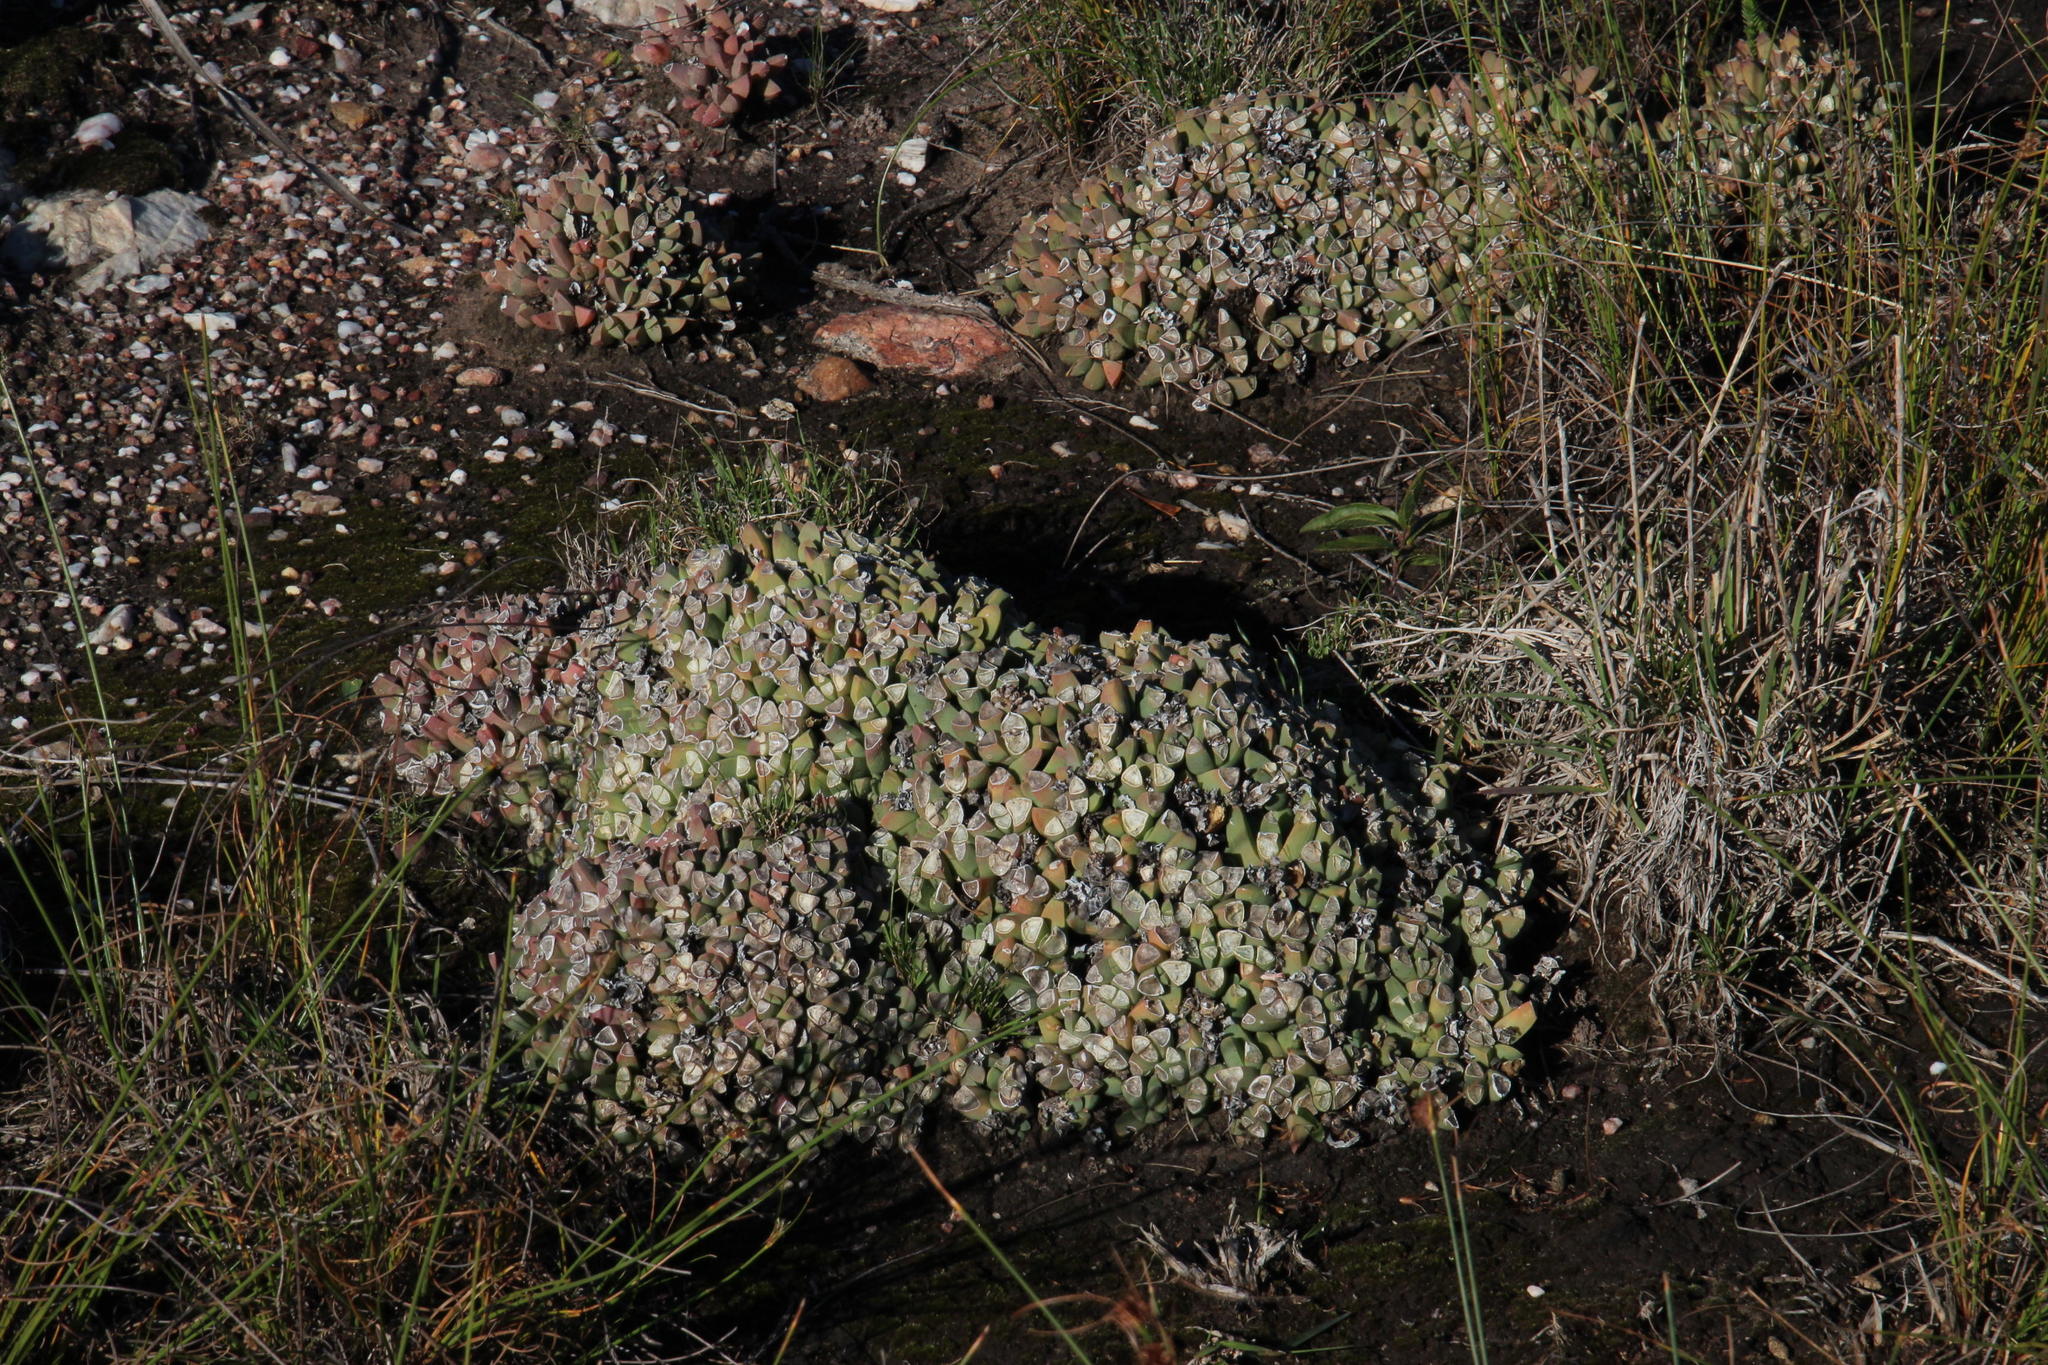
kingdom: Plantae
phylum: Tracheophyta
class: Magnoliopsida
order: Caryophyllales
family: Aizoaceae
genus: Corpuscularia
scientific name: Corpuscularia lehmannii
